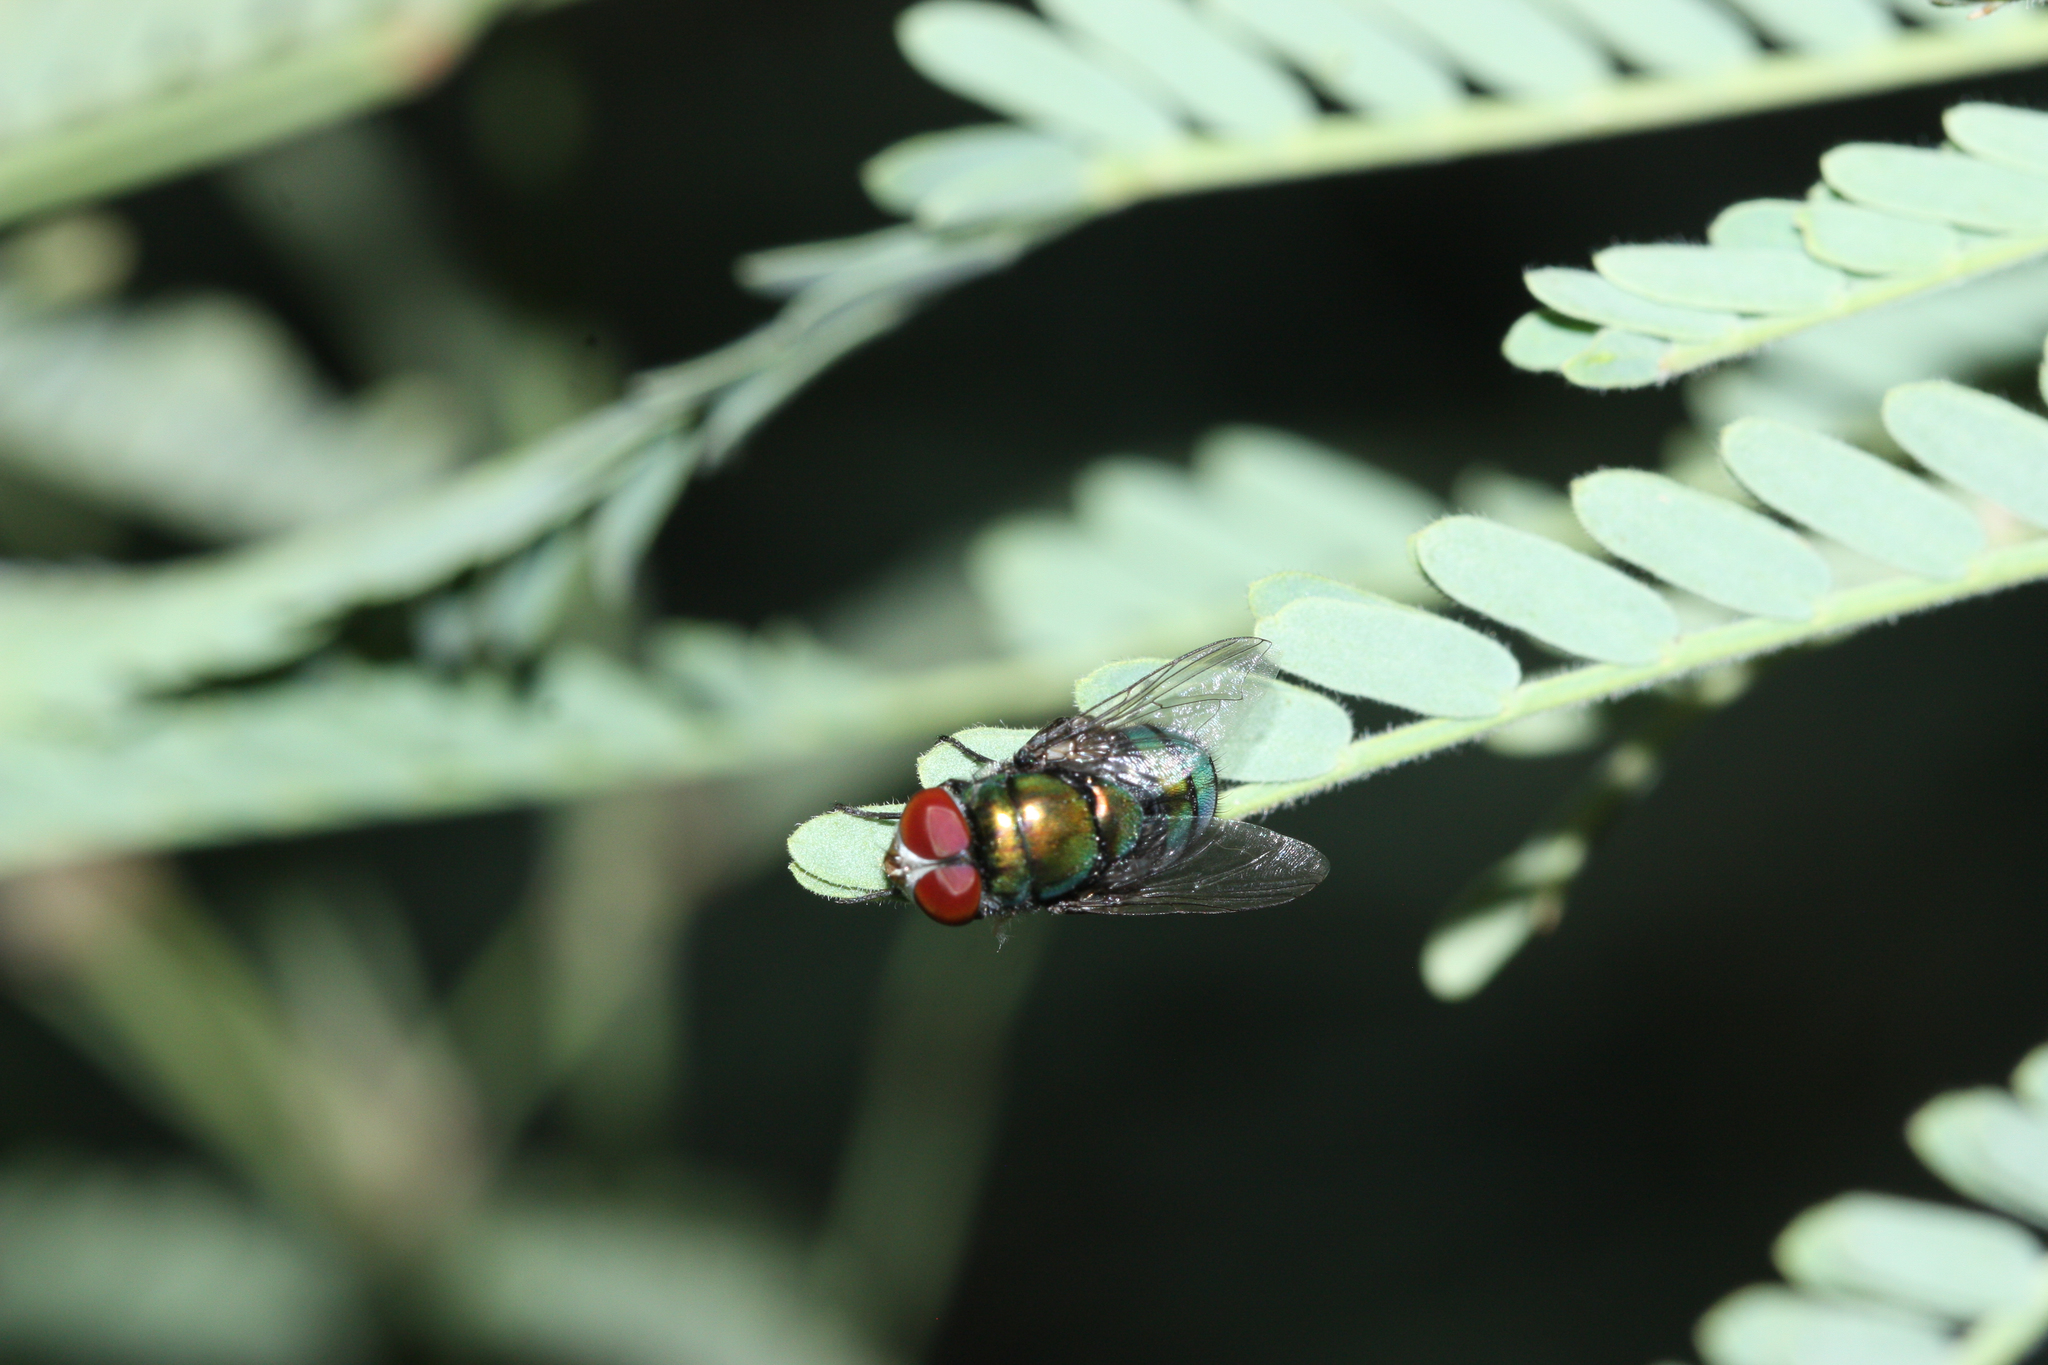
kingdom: Animalia
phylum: Arthropoda
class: Insecta
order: Diptera
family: Calliphoridae
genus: Chrysomya
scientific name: Chrysomya rufifacies
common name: Blow fly
